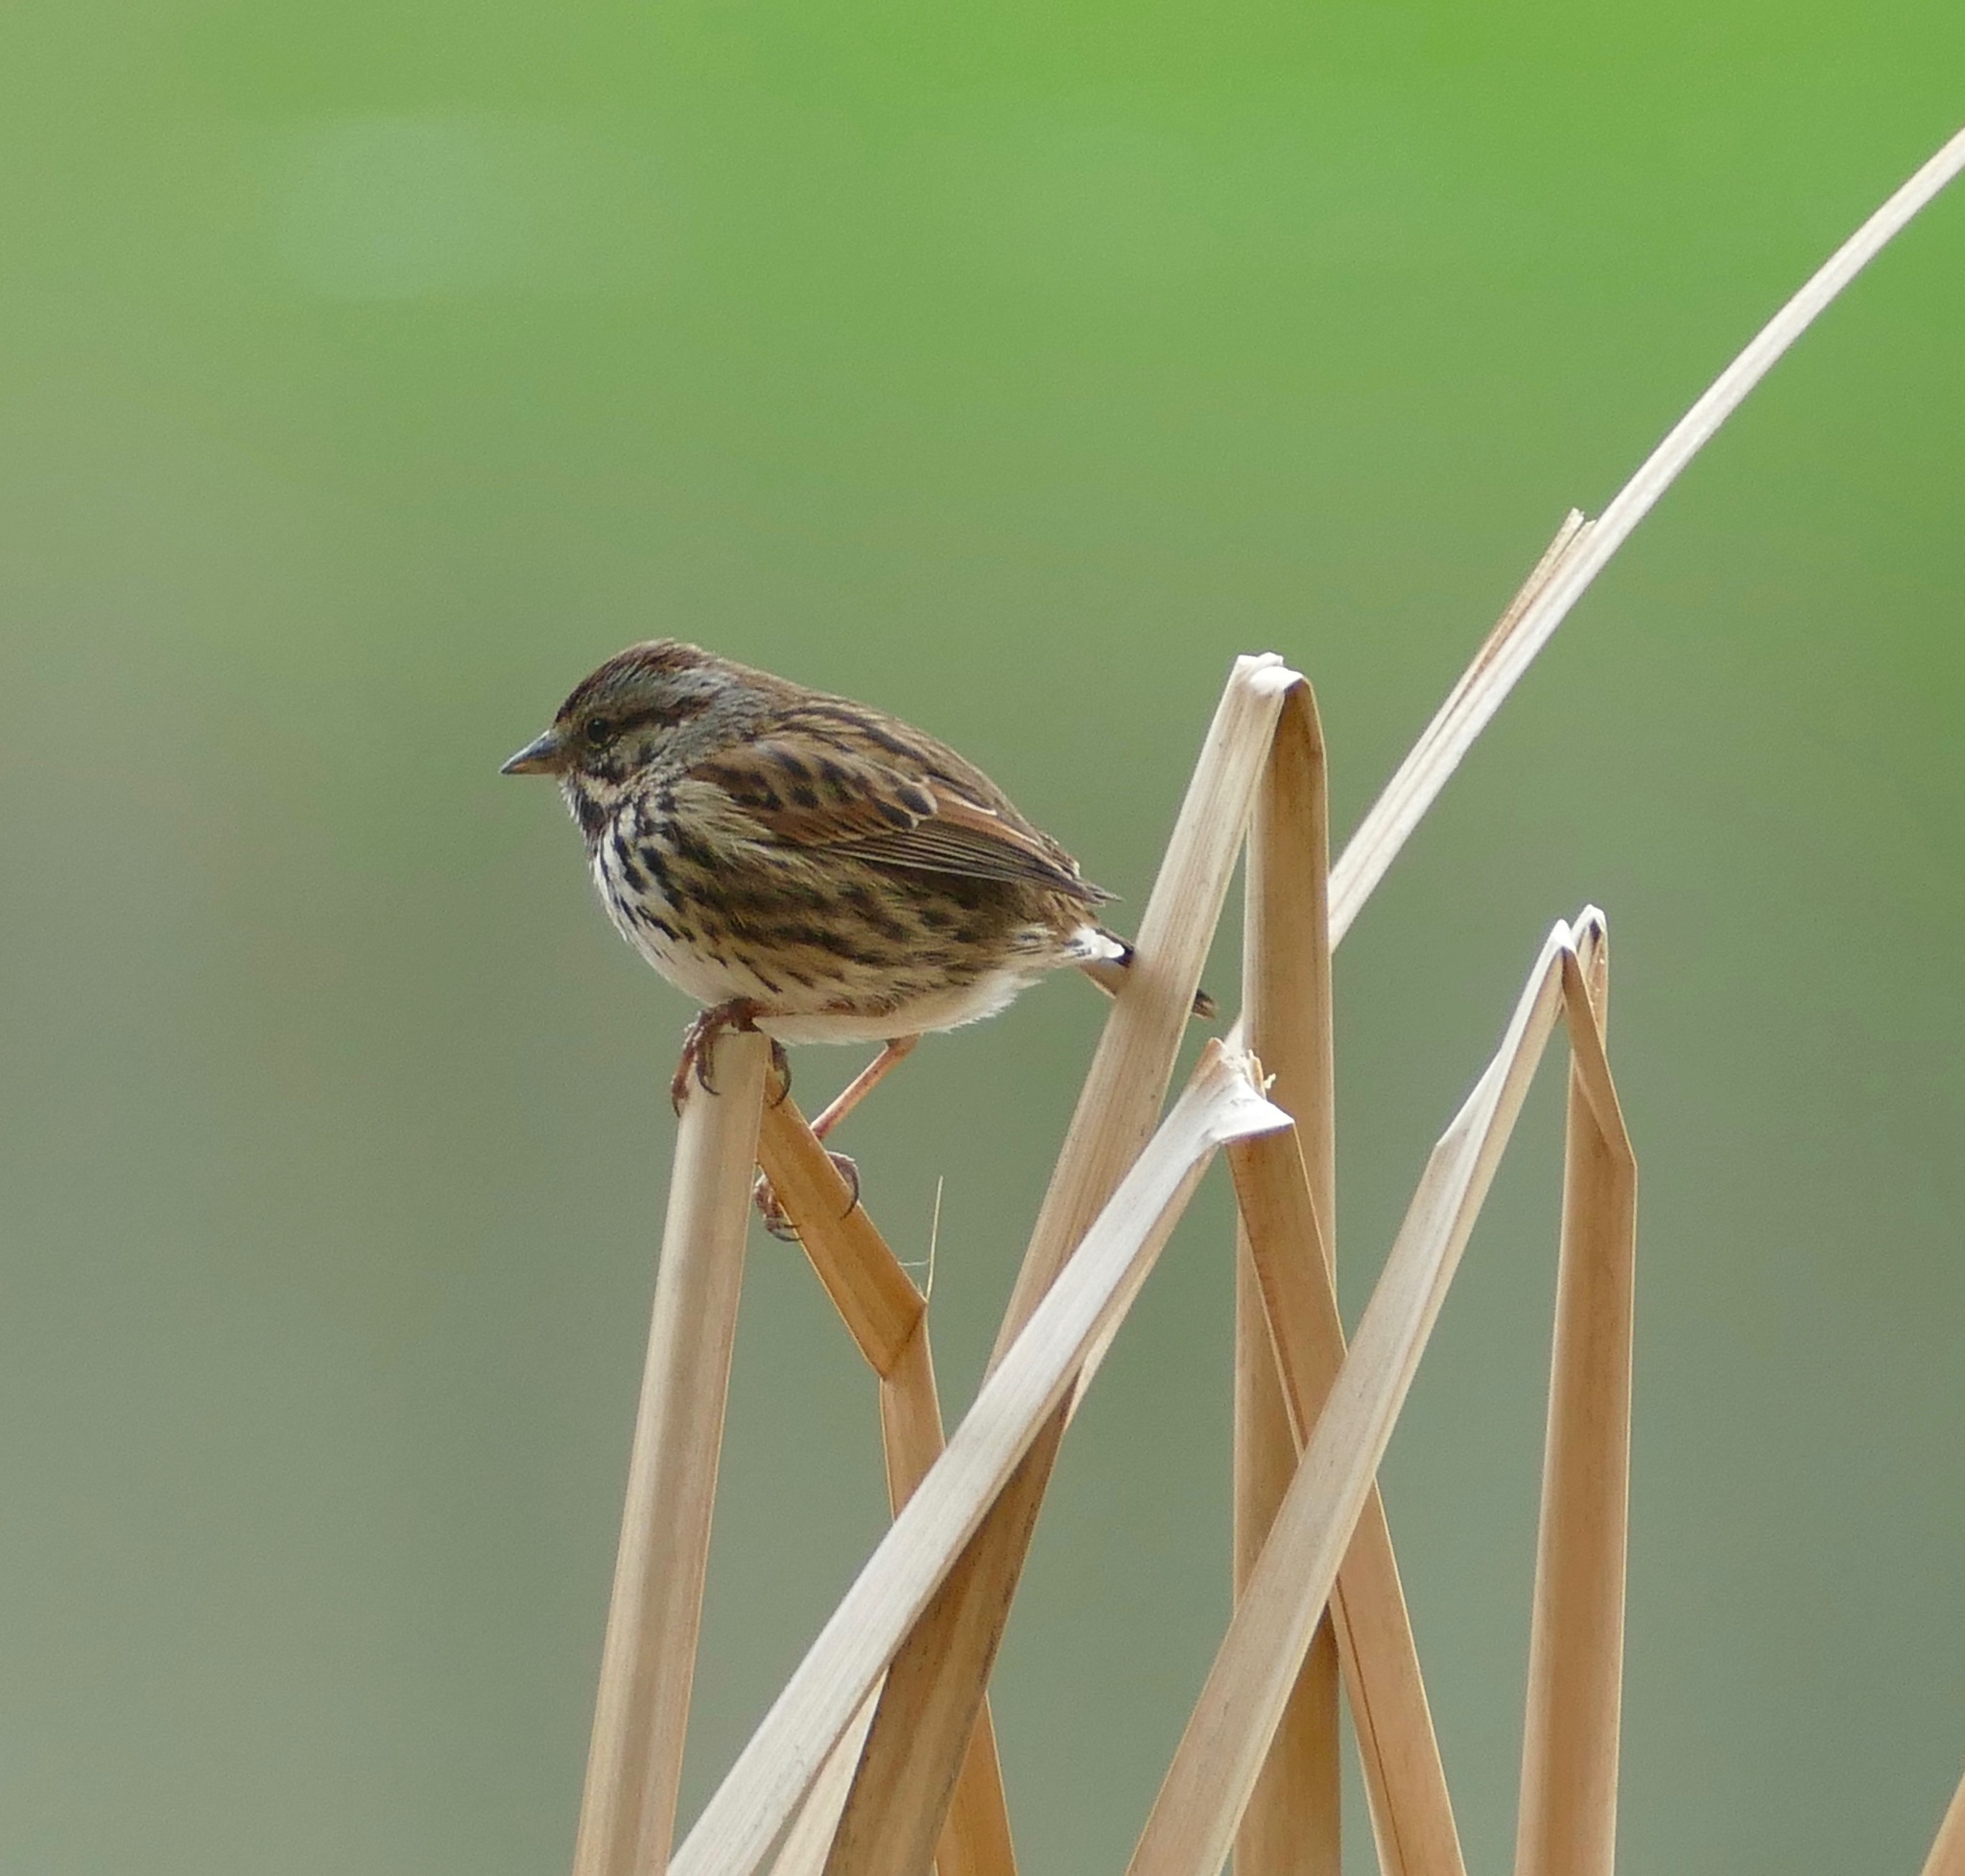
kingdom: Animalia
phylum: Chordata
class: Aves
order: Passeriformes
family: Passerellidae
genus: Melospiza
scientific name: Melospiza melodia
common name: Song sparrow
